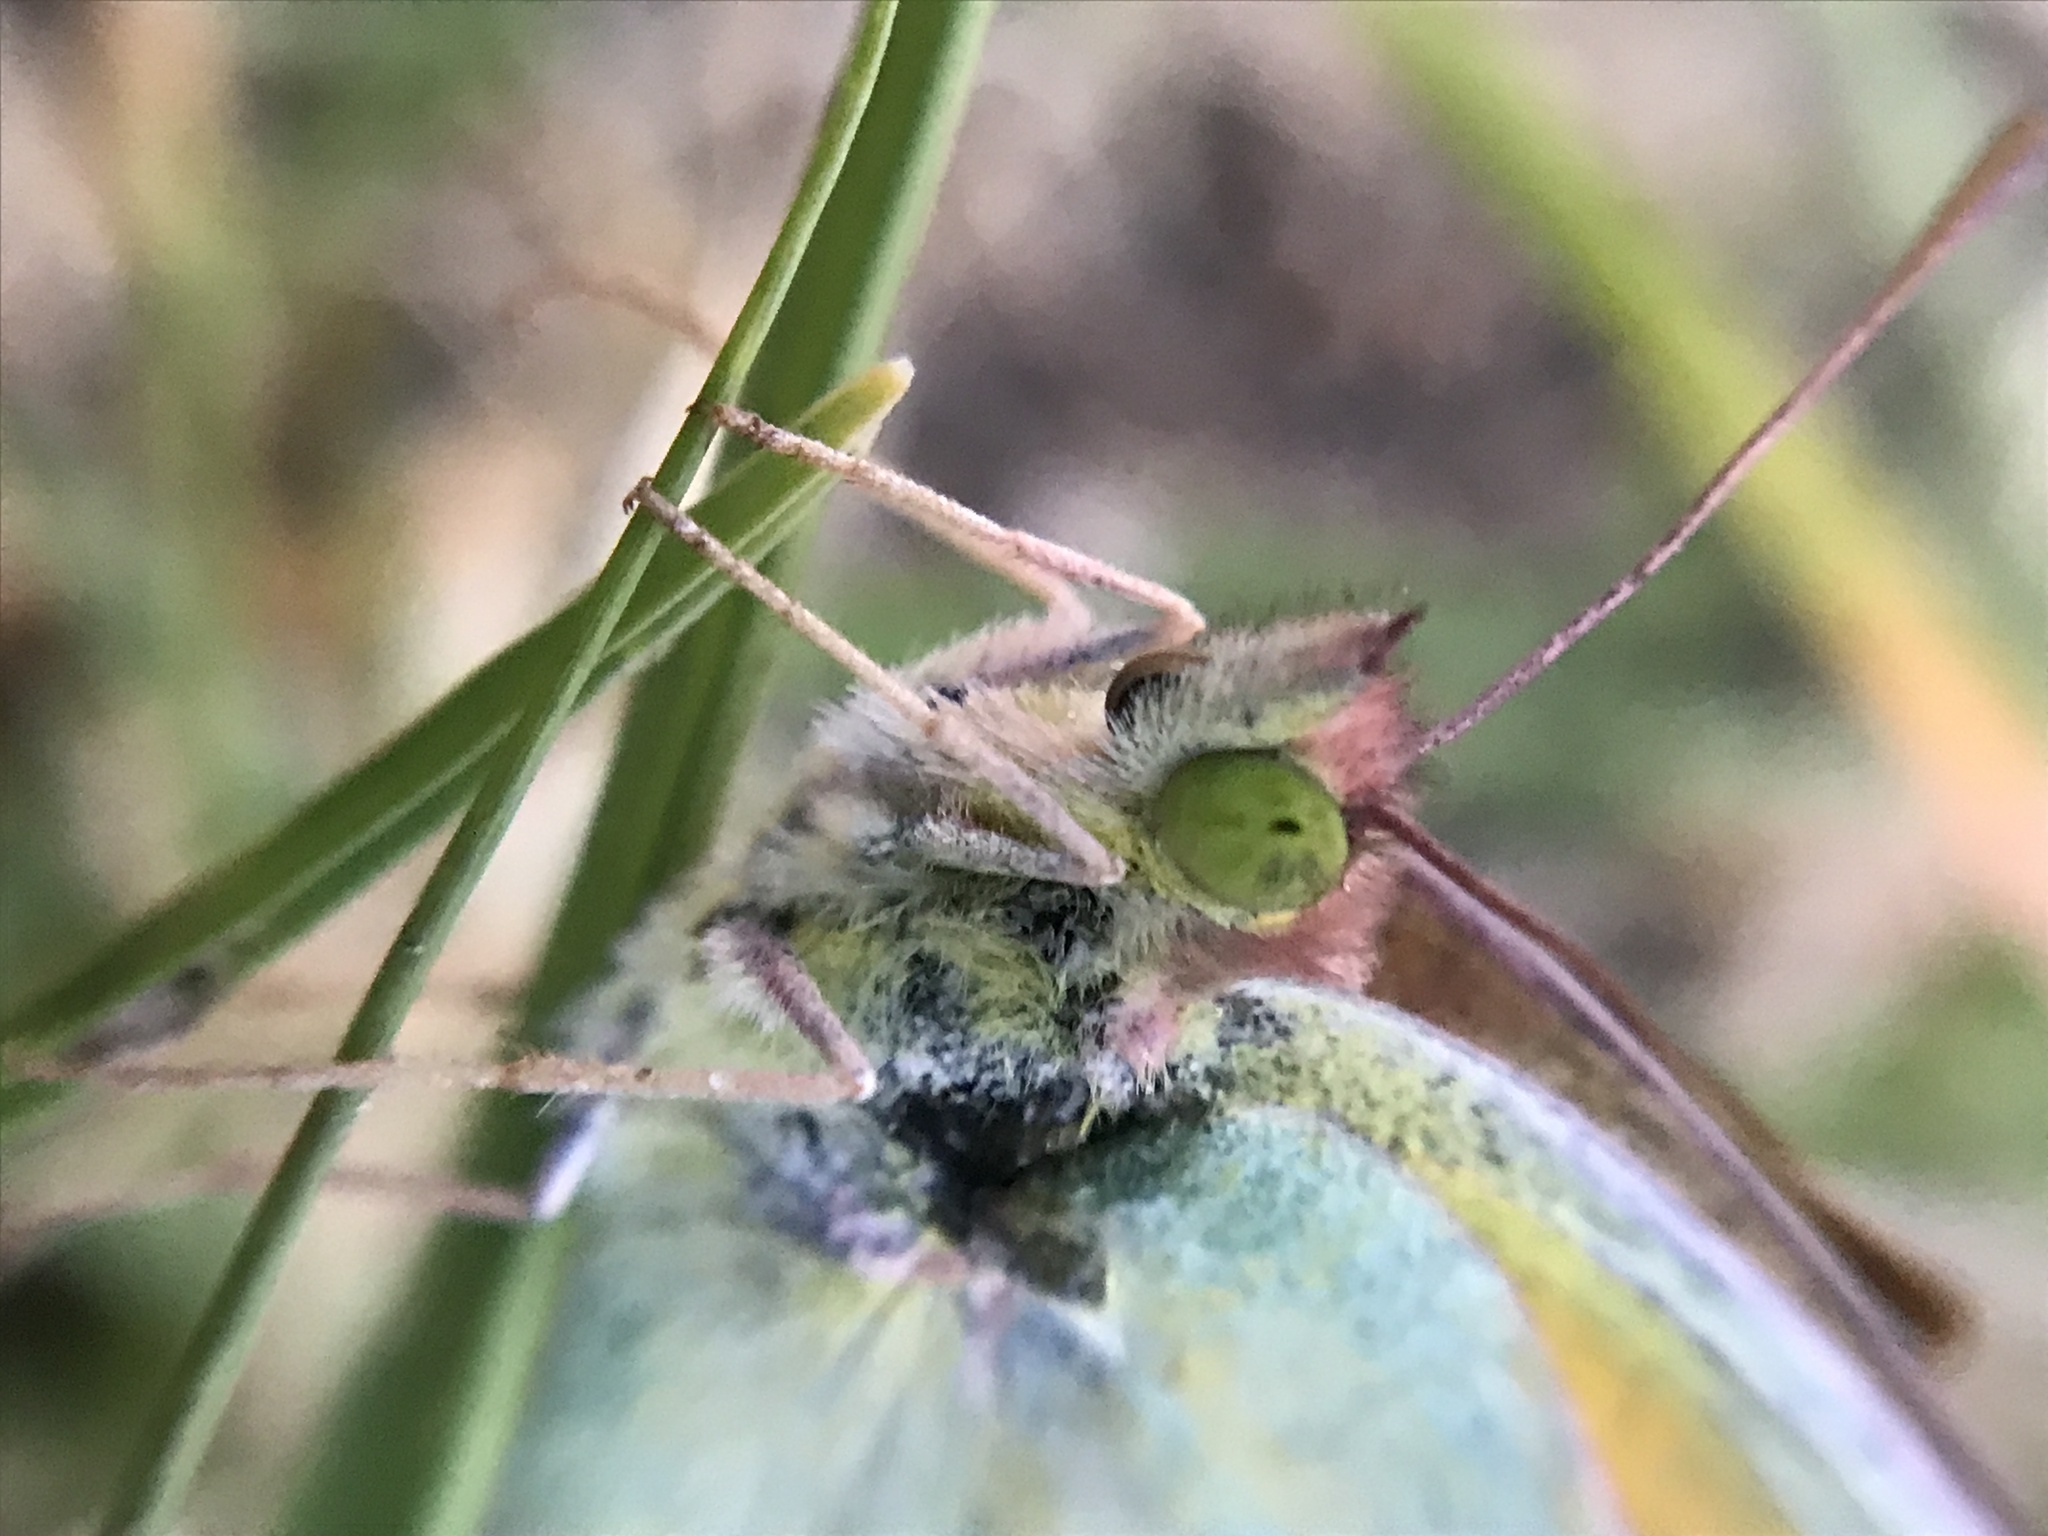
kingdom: Animalia
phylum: Arthropoda
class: Insecta
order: Lepidoptera
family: Pieridae
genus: Colias
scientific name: Colias lesbia
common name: Lesbia clouded yellow
